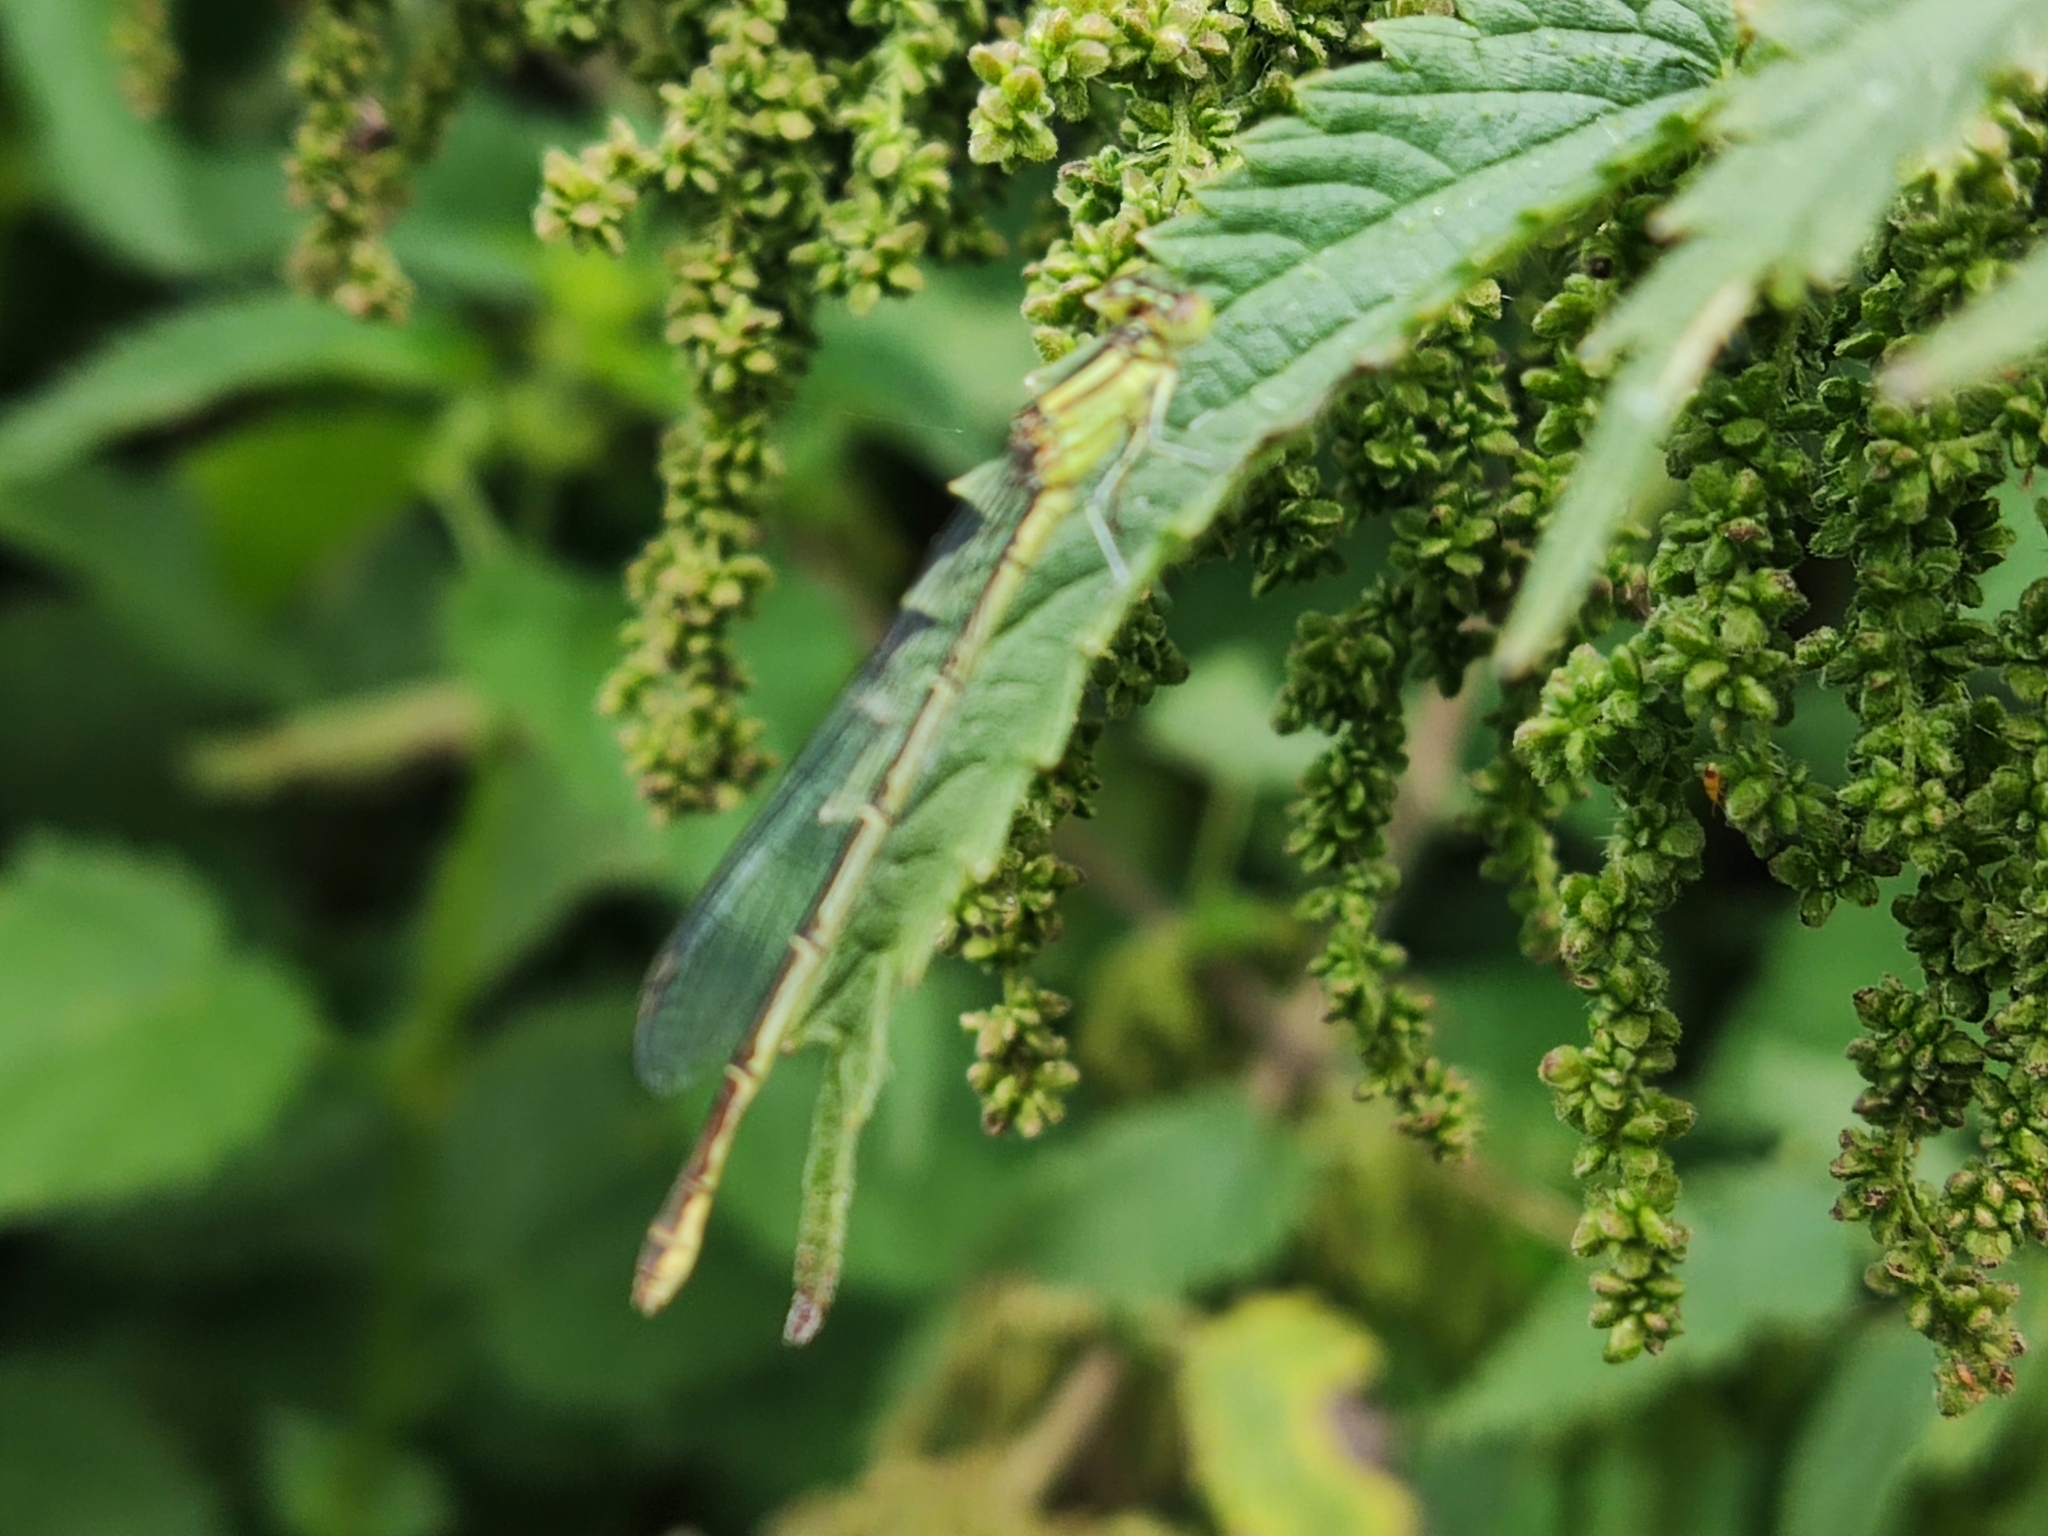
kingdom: Animalia
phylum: Arthropoda
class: Insecta
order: Odonata
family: Coenagrionidae
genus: Erythromma
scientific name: Erythromma lindenii
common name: Blue-eye
